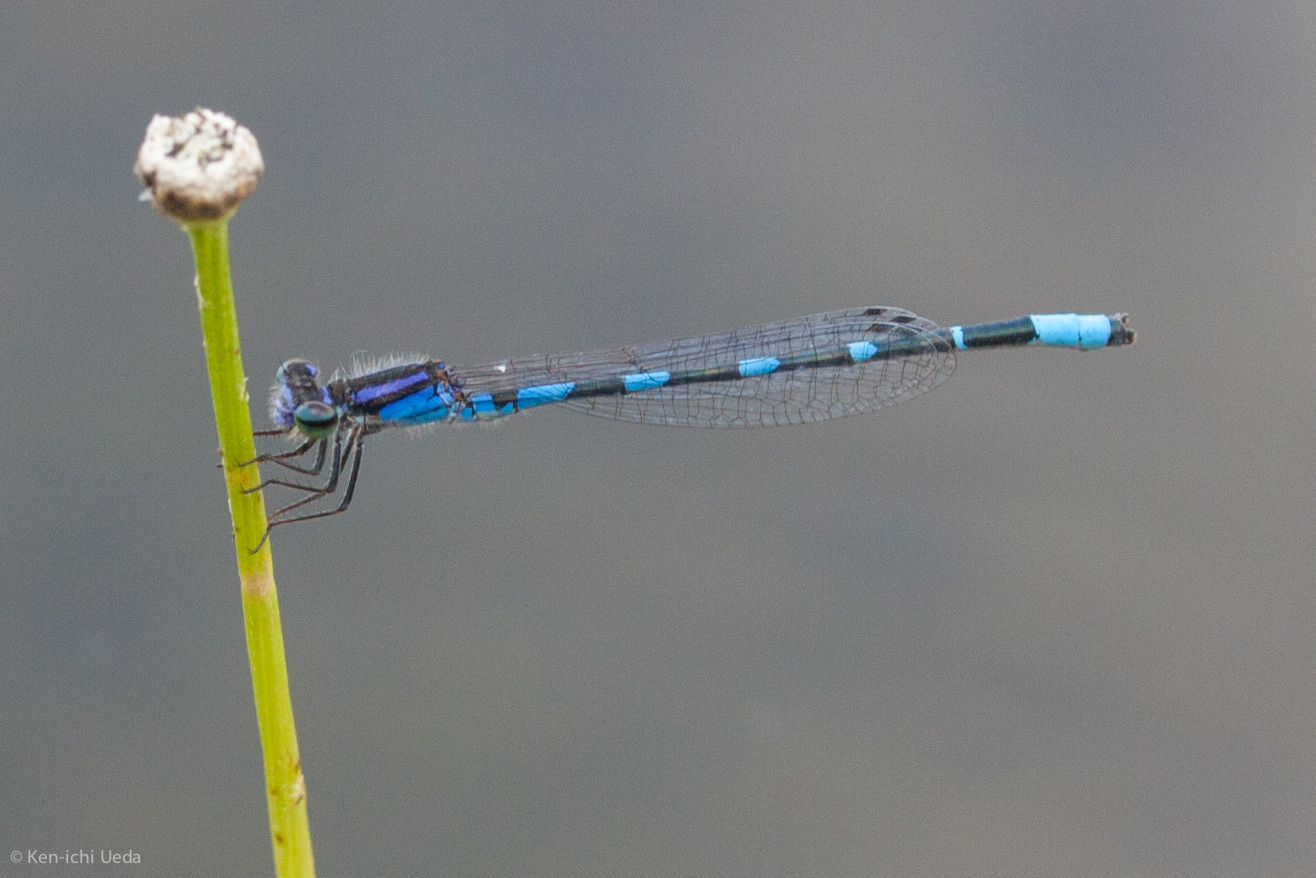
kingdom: Animalia
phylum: Arthropoda
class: Insecta
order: Odonata
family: Coenagrionidae
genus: Enallagma
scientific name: Enallagma minusculum
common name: Little bluet
